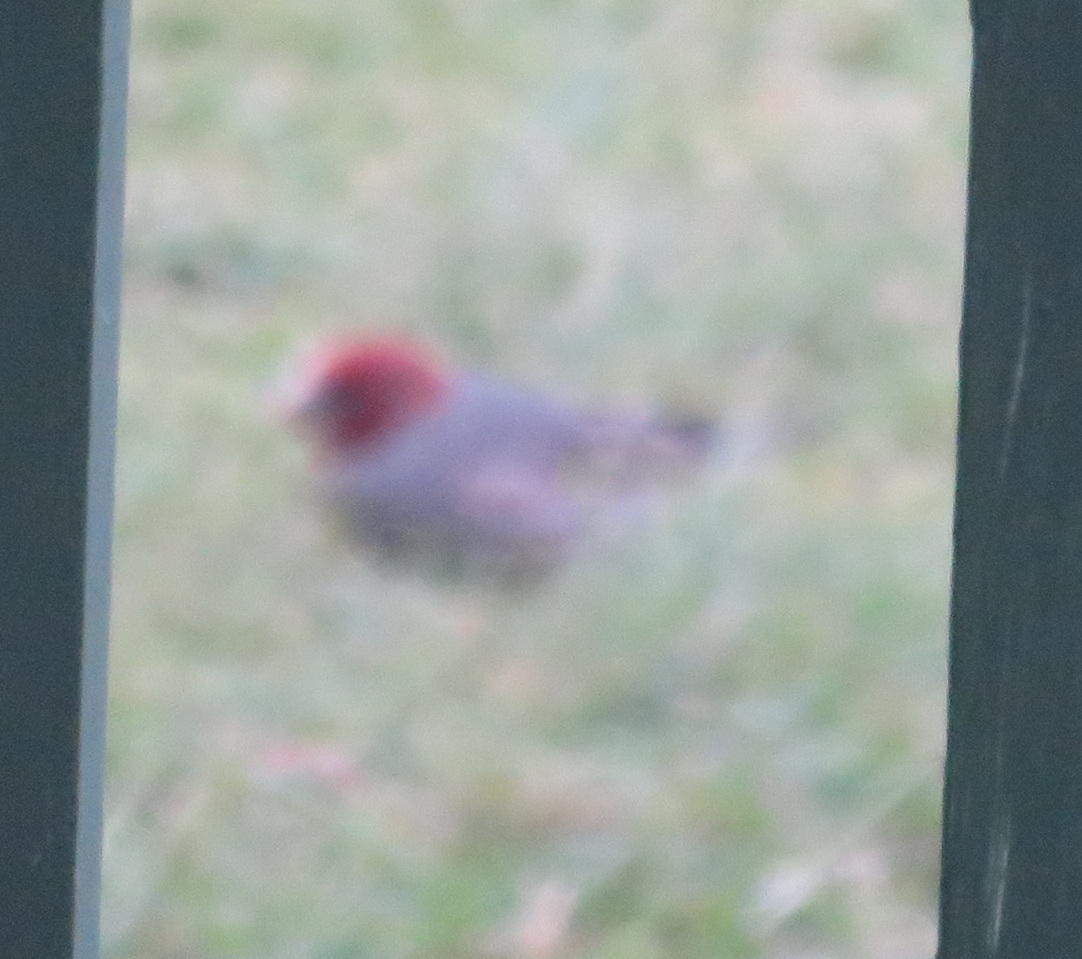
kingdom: Animalia
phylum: Chordata
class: Aves
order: Passeriformes
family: Estrildidae
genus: Amadina
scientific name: Amadina erythrocephala
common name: Red-headed finch
